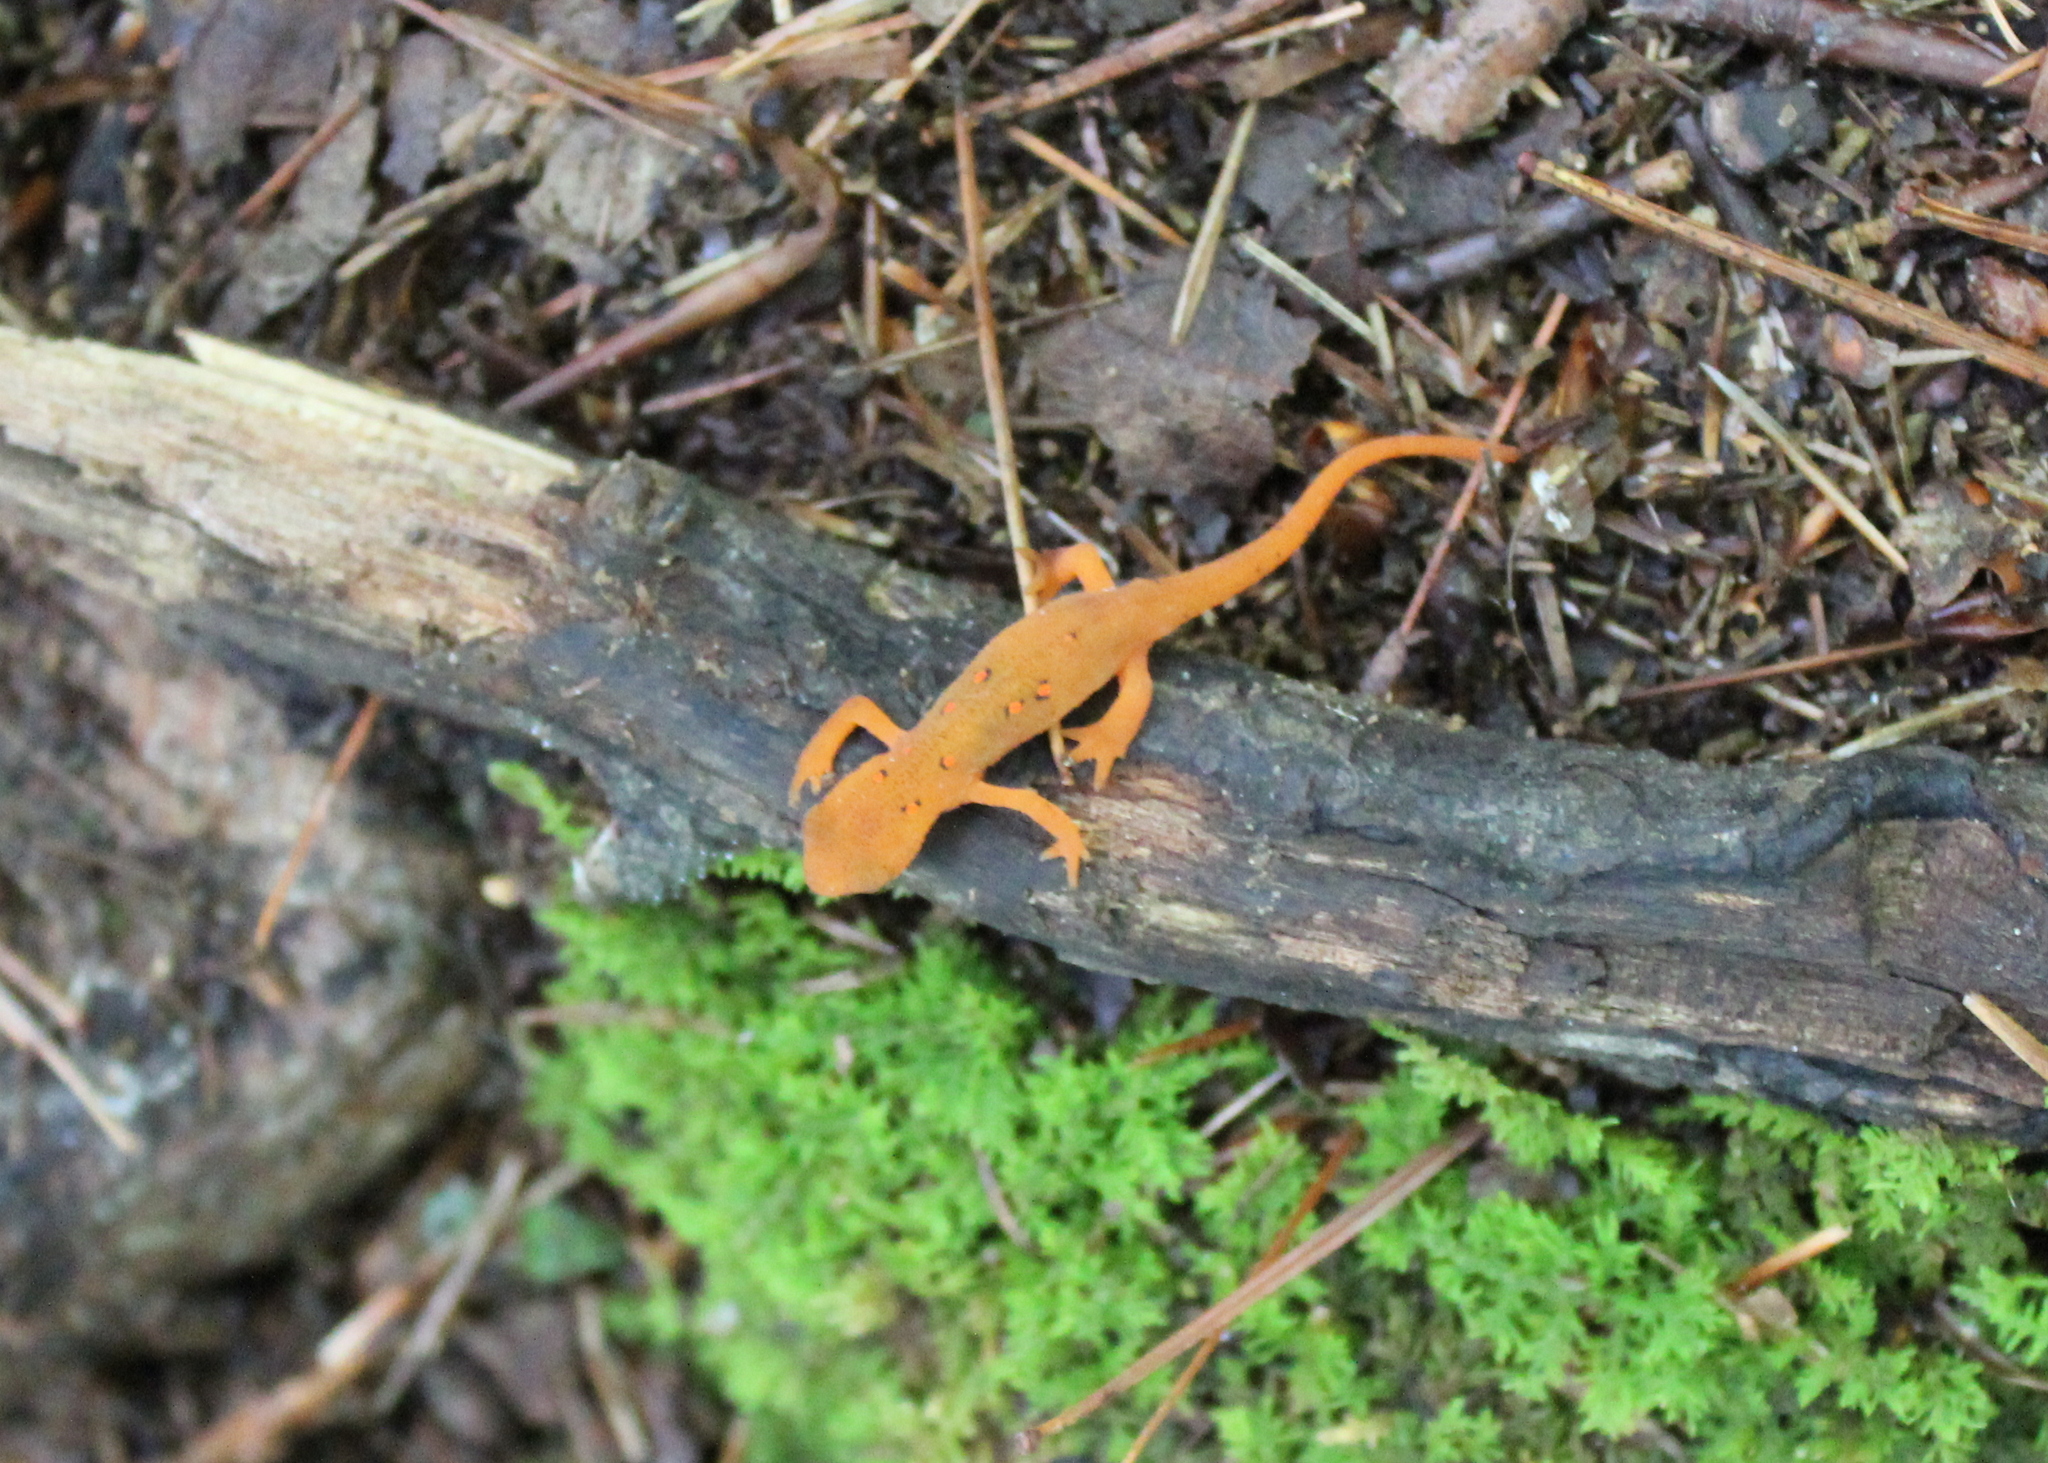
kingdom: Animalia
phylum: Chordata
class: Amphibia
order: Caudata
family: Salamandridae
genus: Notophthalmus
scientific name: Notophthalmus viridescens
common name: Eastern newt
